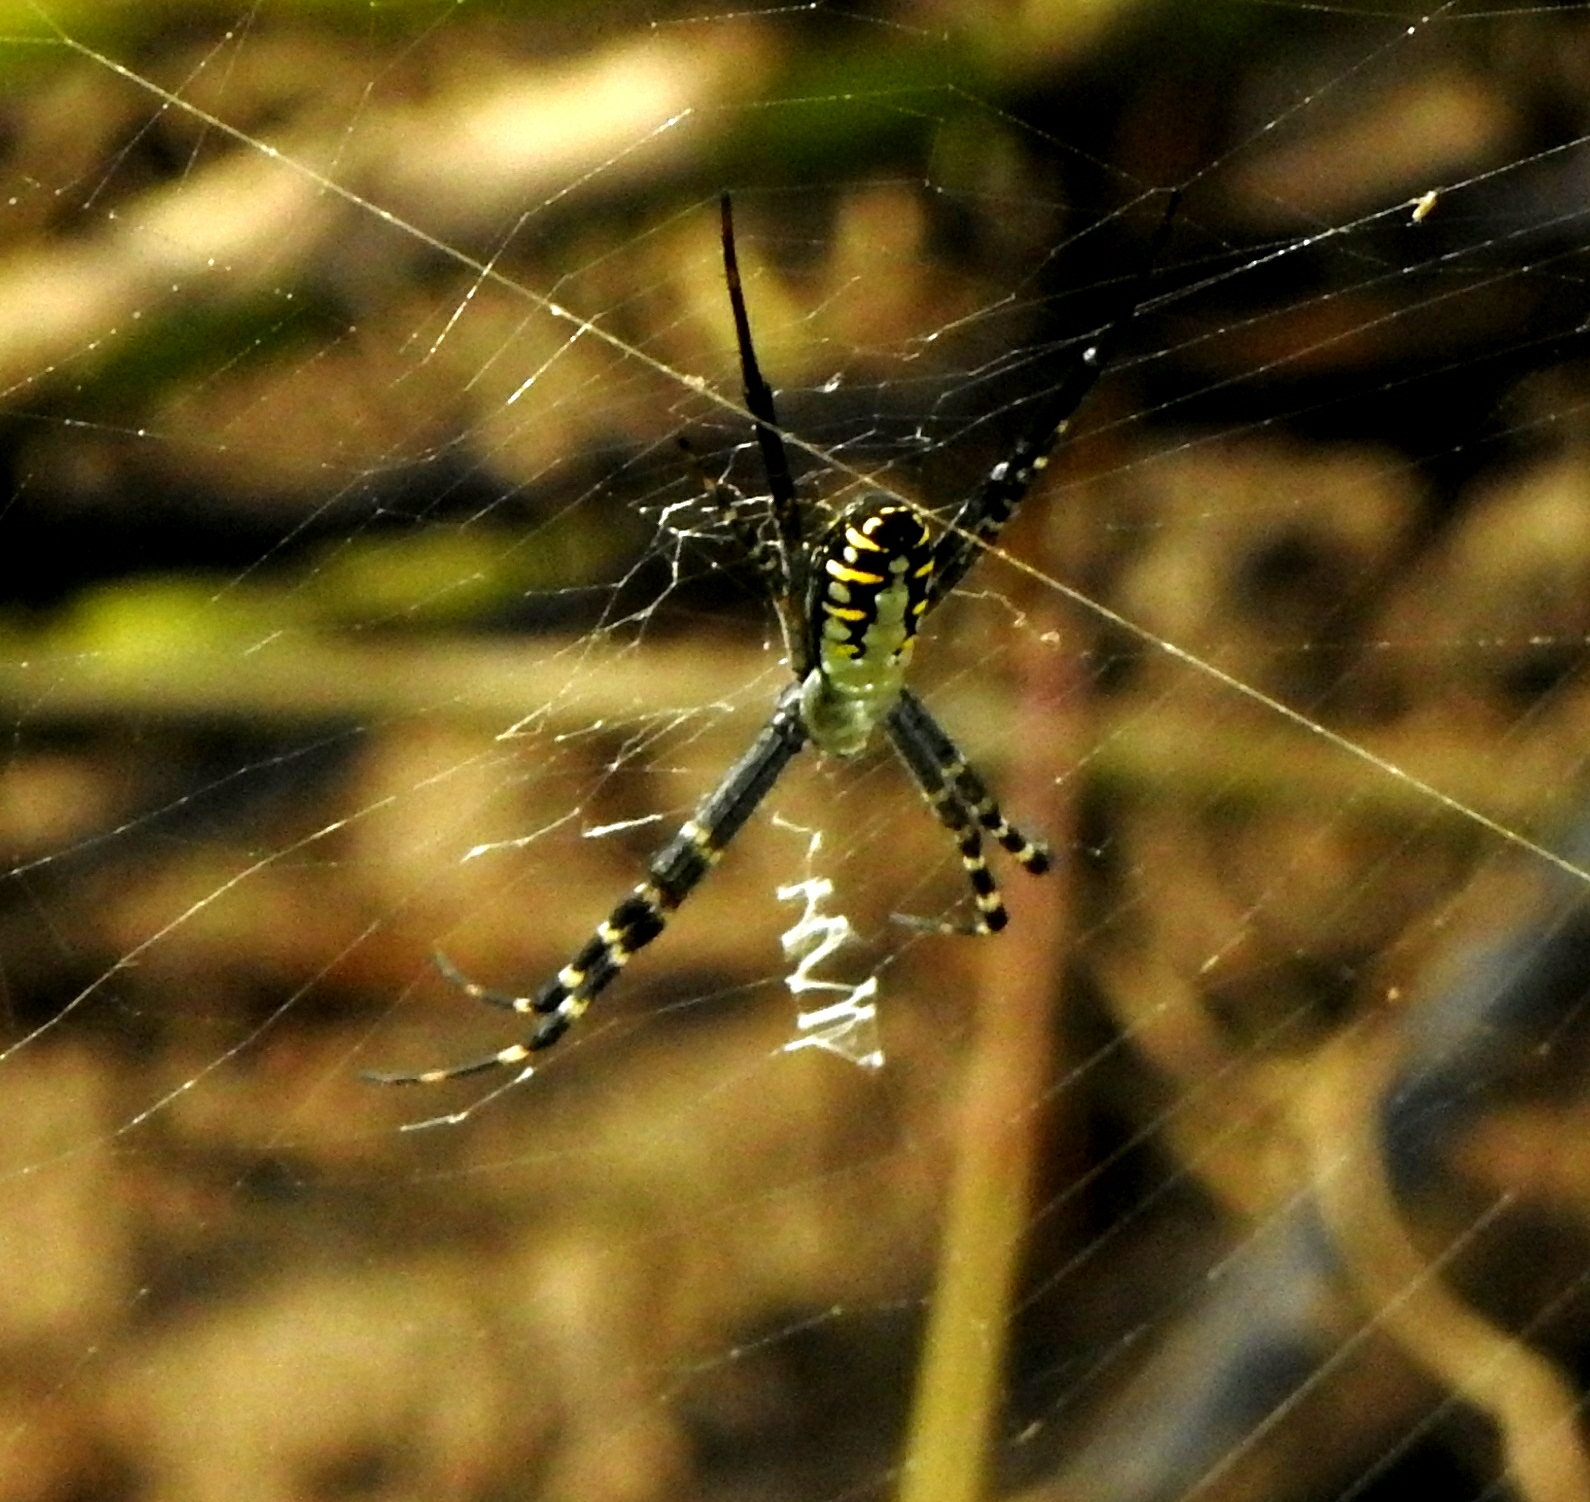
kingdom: Animalia
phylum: Arthropoda
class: Arachnida
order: Araneae
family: Araneidae
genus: Argiope
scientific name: Argiope catenulata
